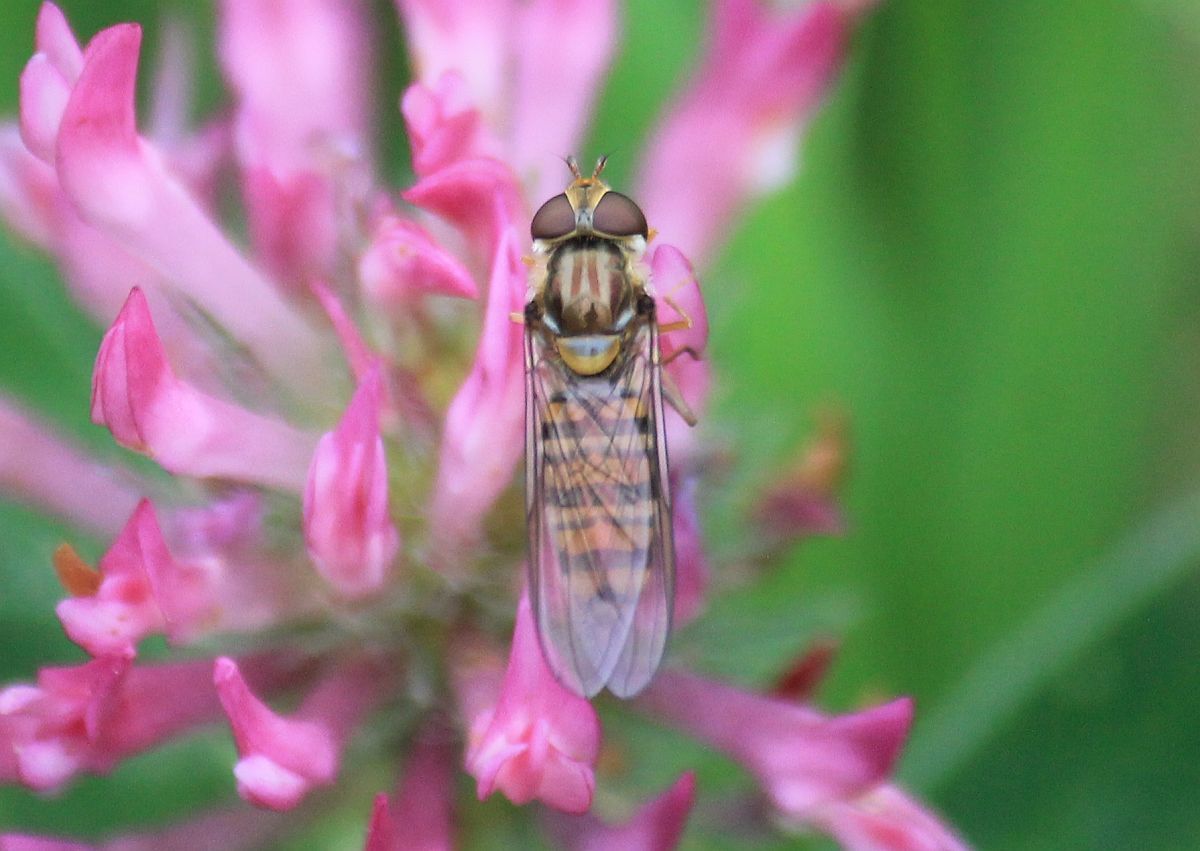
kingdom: Animalia
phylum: Arthropoda
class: Insecta
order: Diptera
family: Syrphidae
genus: Episyrphus
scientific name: Episyrphus balteatus
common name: Marmalade hoverfly
